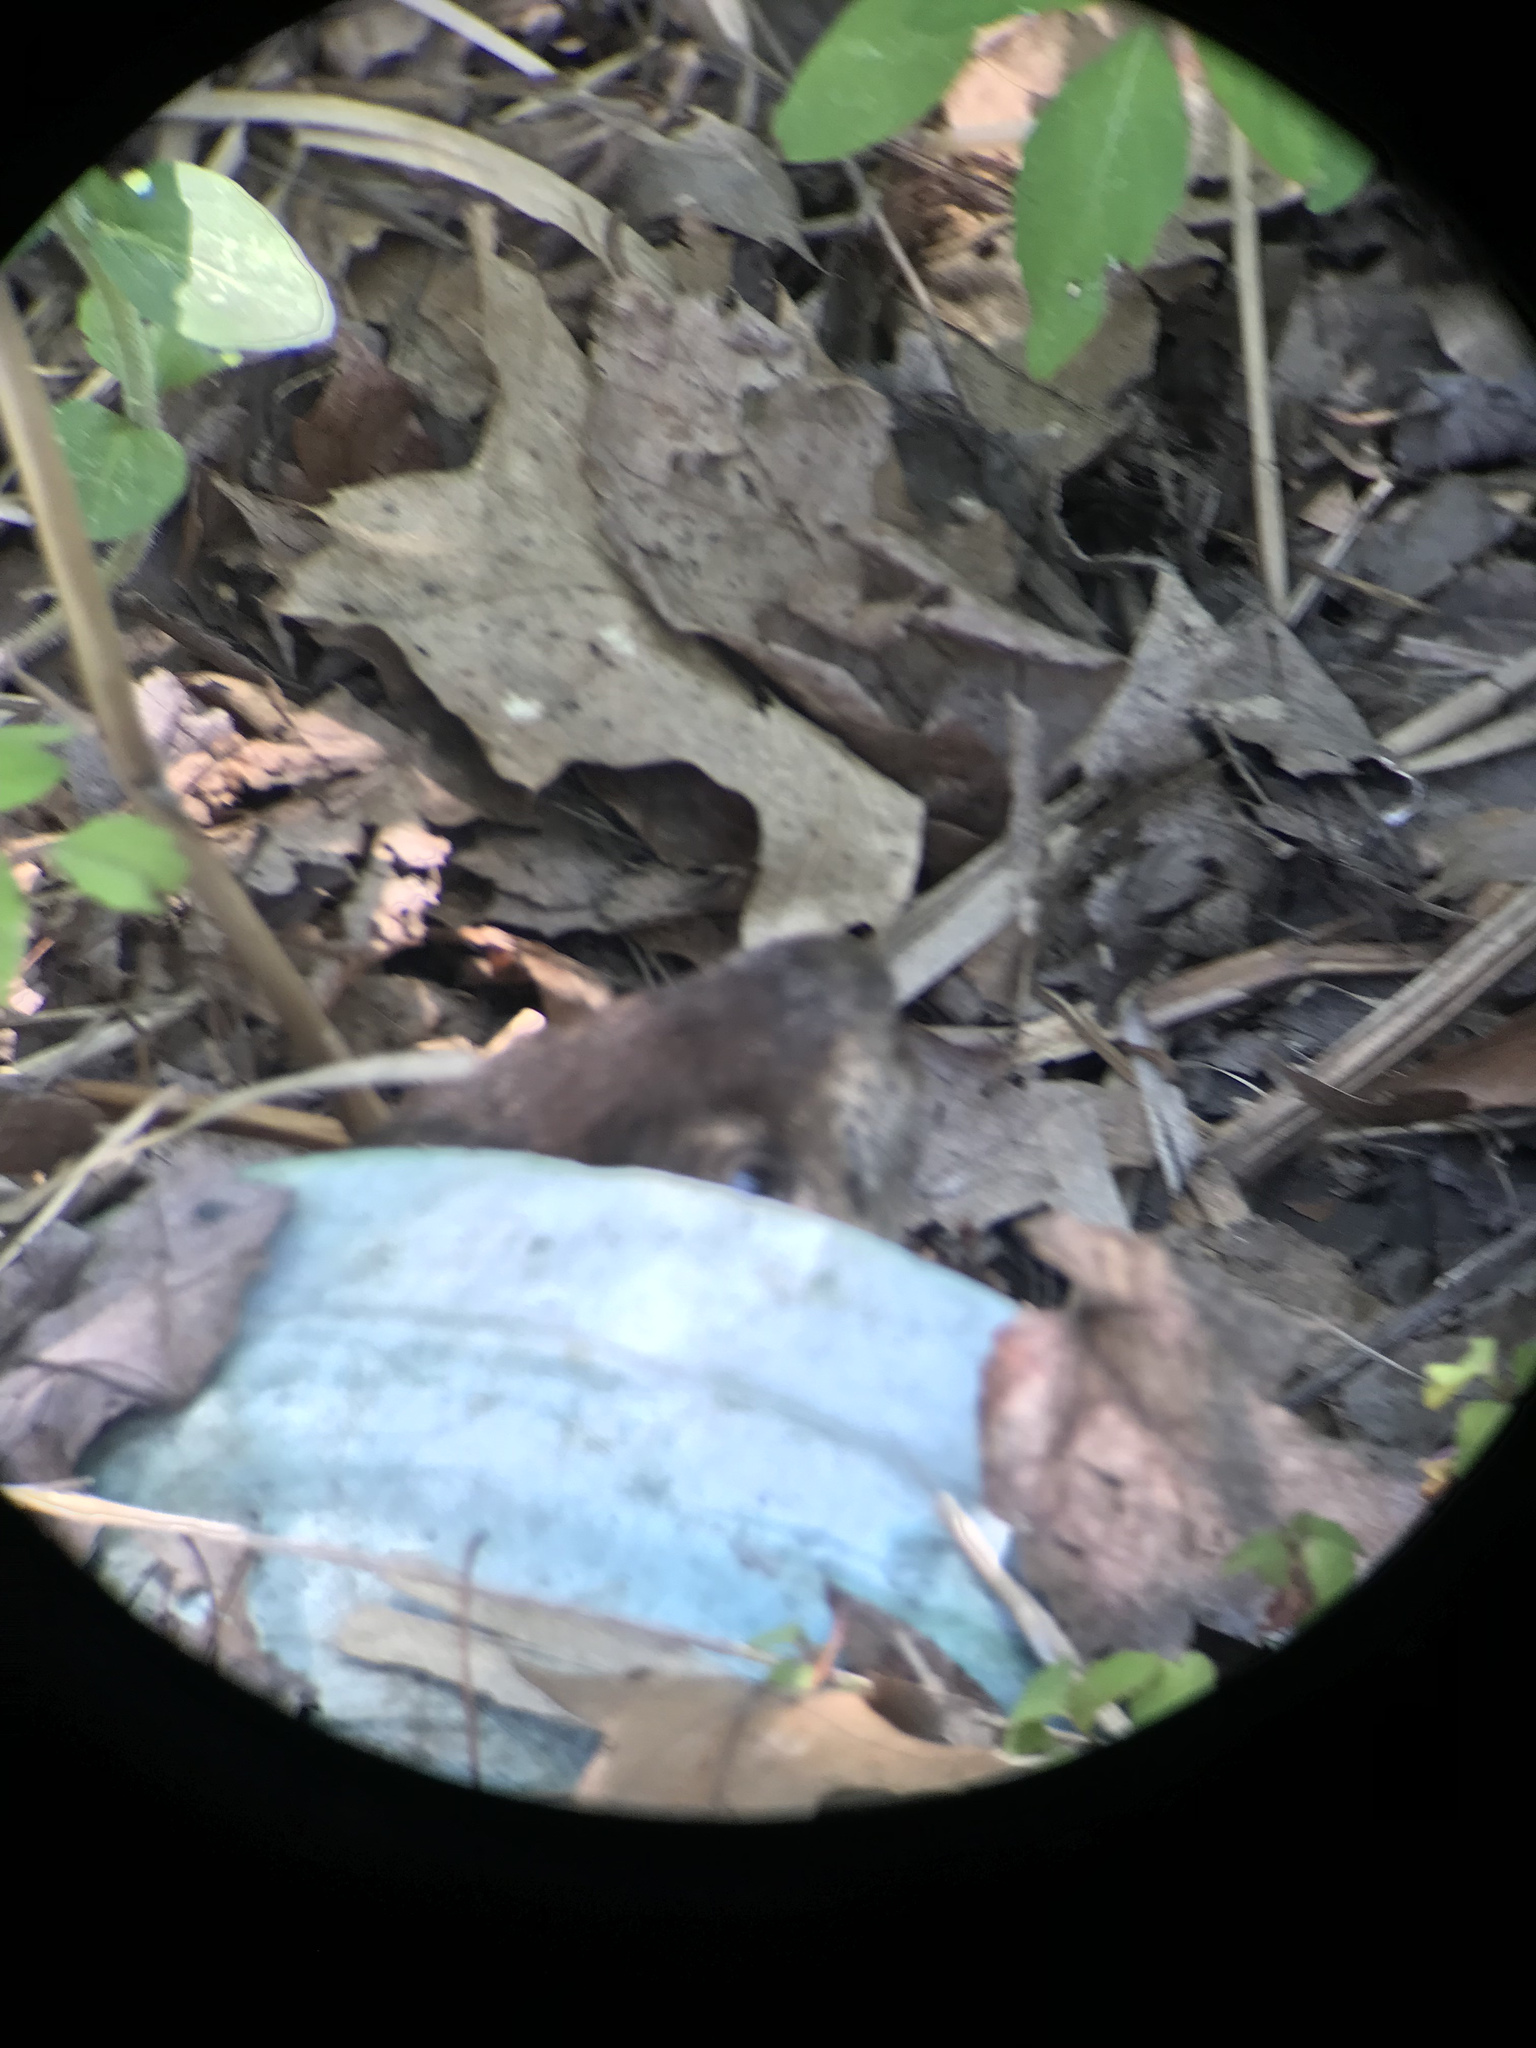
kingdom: Animalia
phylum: Chordata
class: Mammalia
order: Rodentia
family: Sciuridae
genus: Marmota
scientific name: Marmota monax
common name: Groundhog
